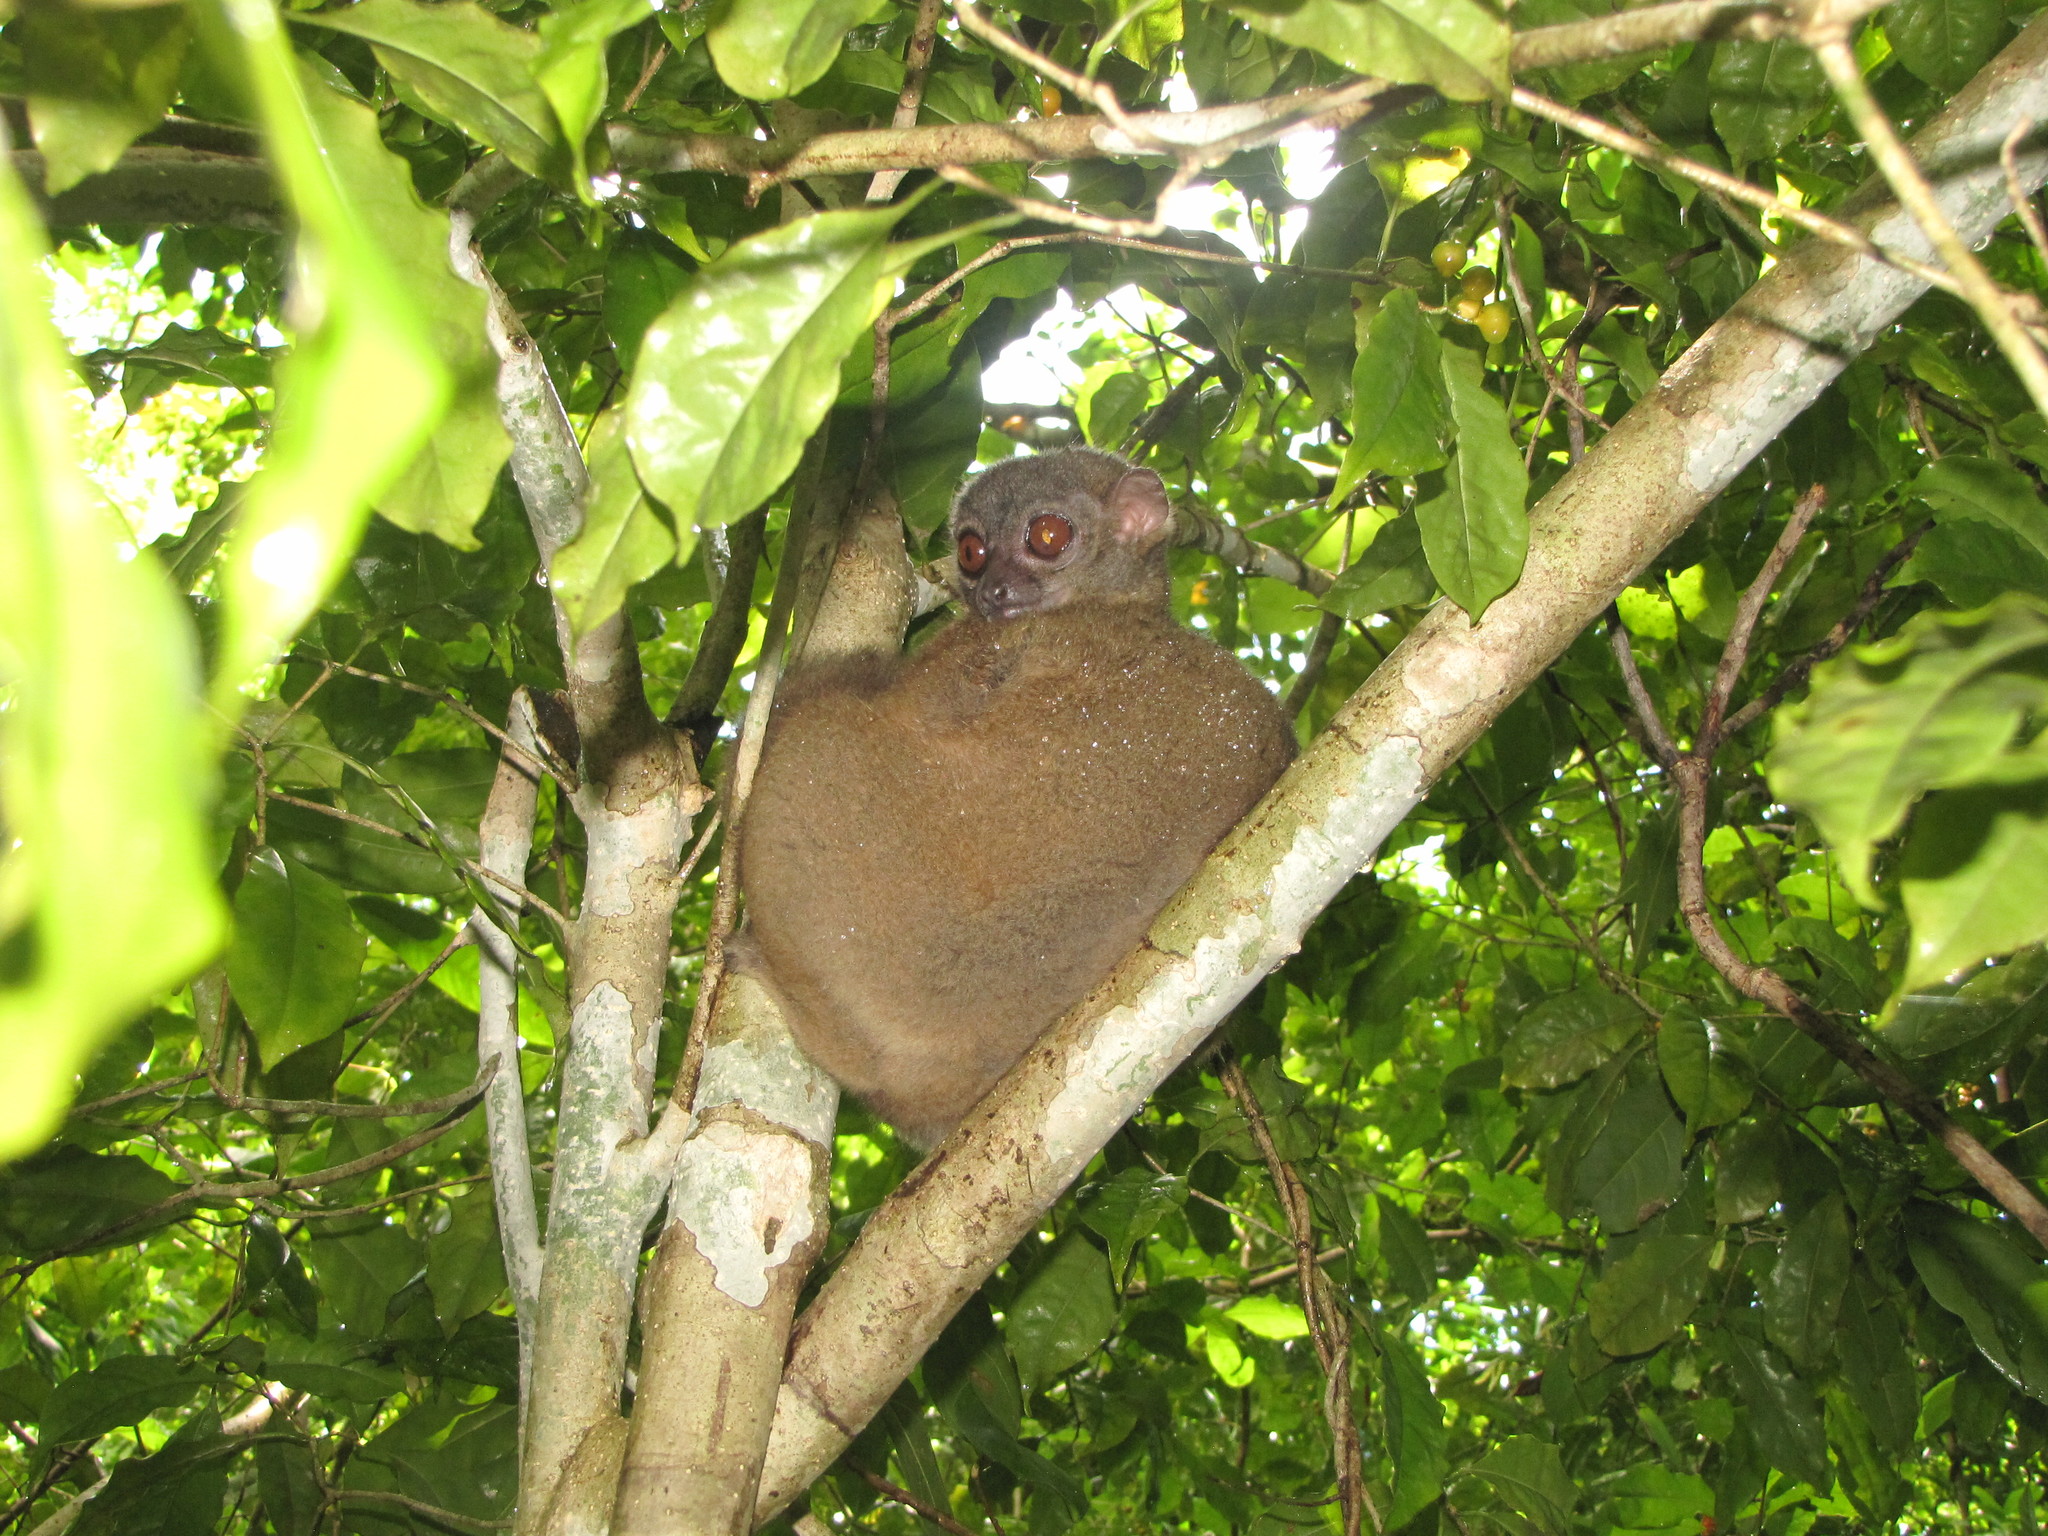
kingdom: Animalia
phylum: Chordata
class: Mammalia
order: Primates
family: Lepilemuridae
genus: Lepilemur
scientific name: Lepilemur tymerlachsoni
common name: Nosy be sportive lemur
